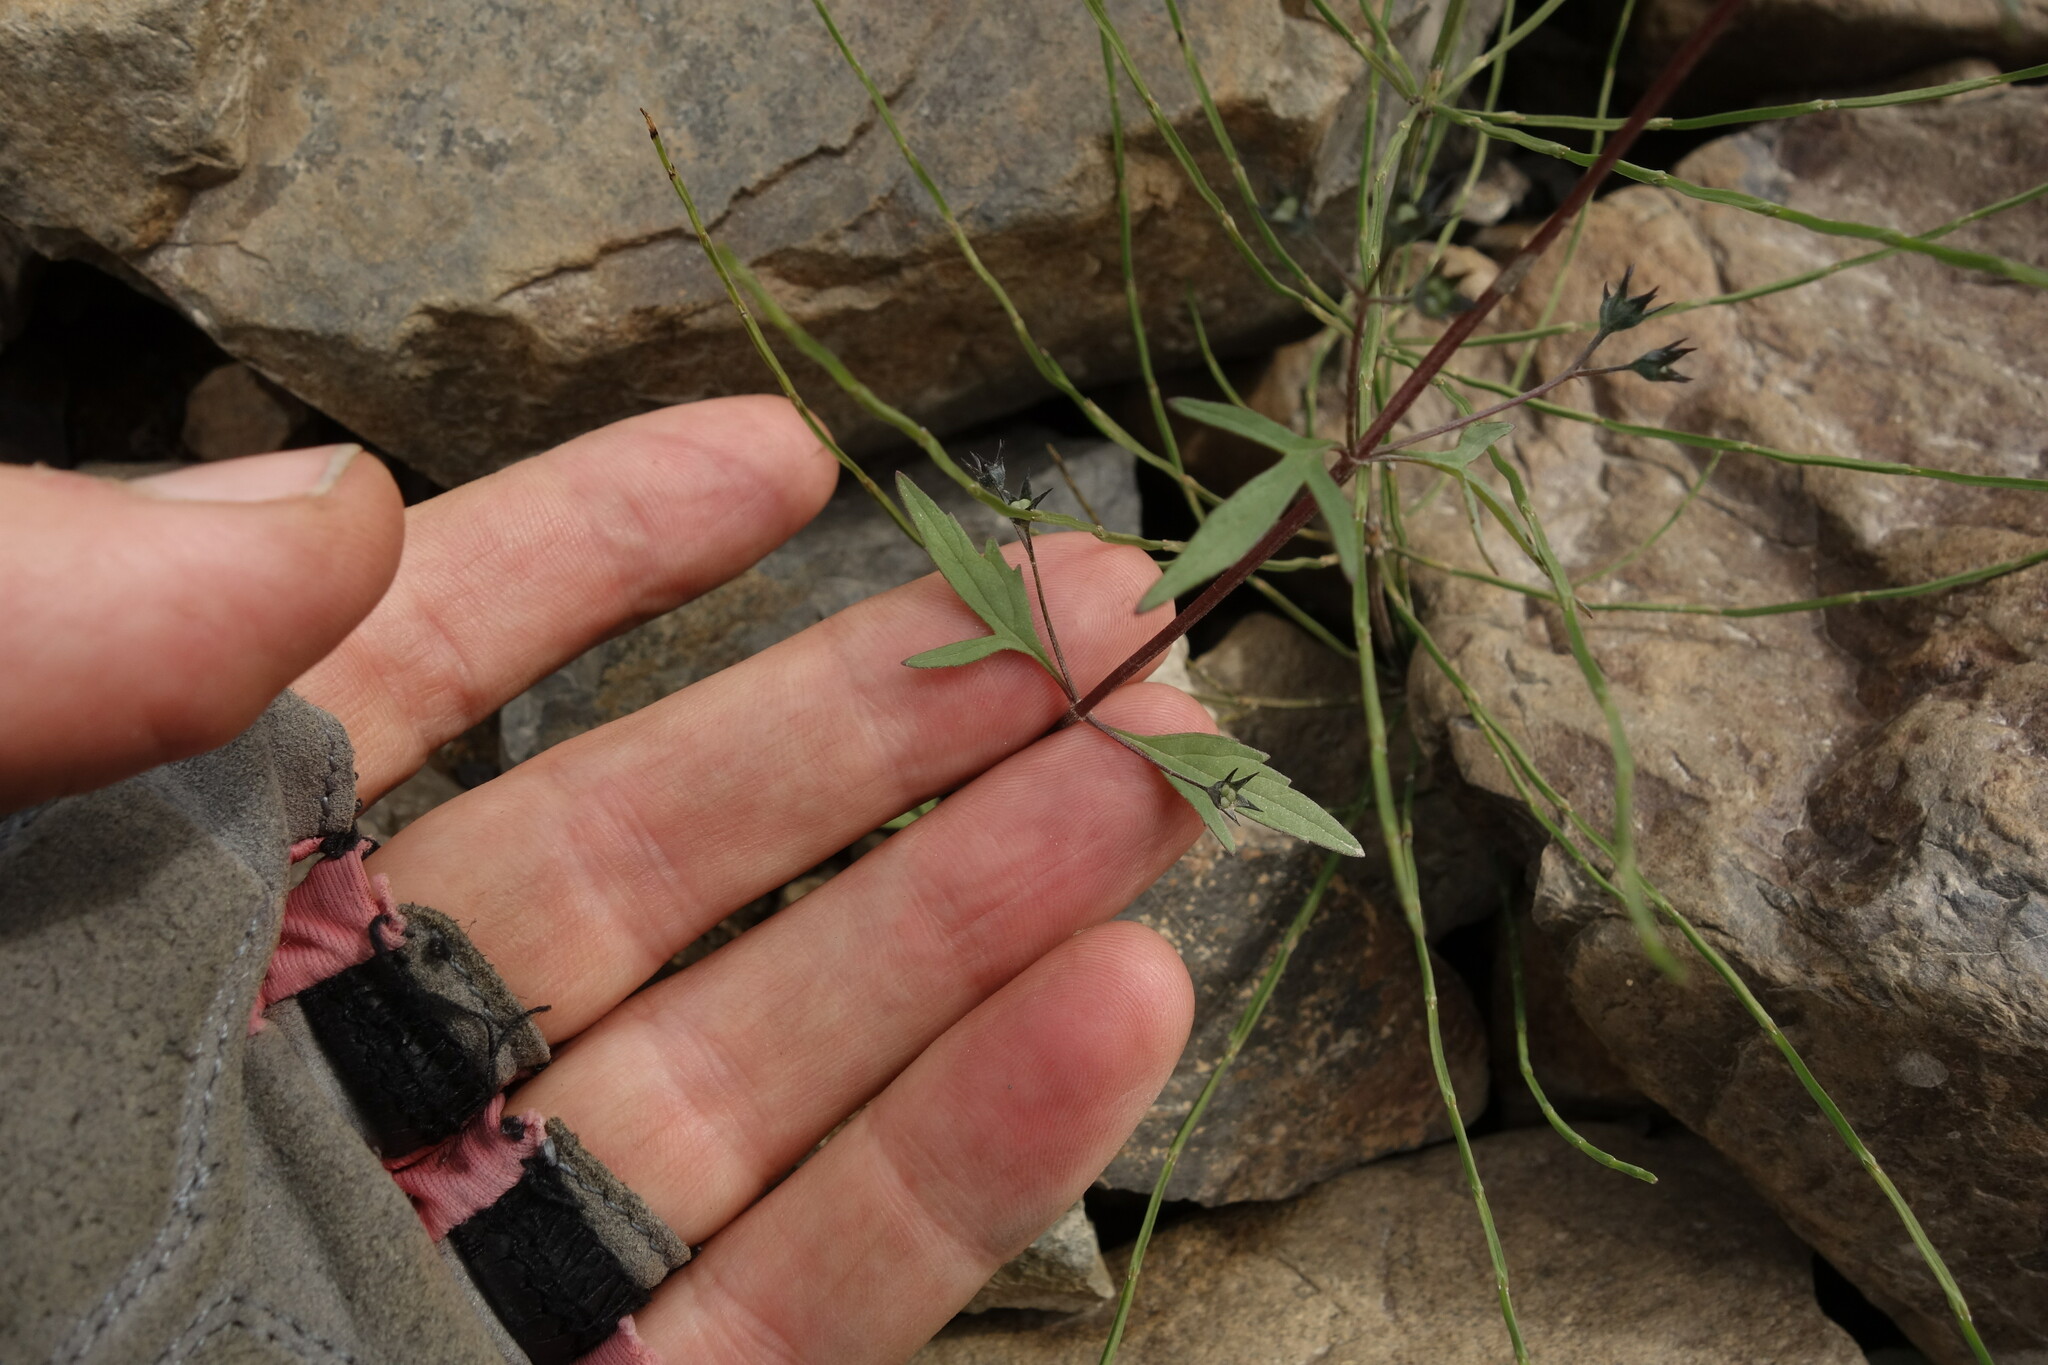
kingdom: Plantae
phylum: Tracheophyta
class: Magnoliopsida
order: Lamiales
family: Lamiaceae
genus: Amethystea
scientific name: Amethystea caerulea
